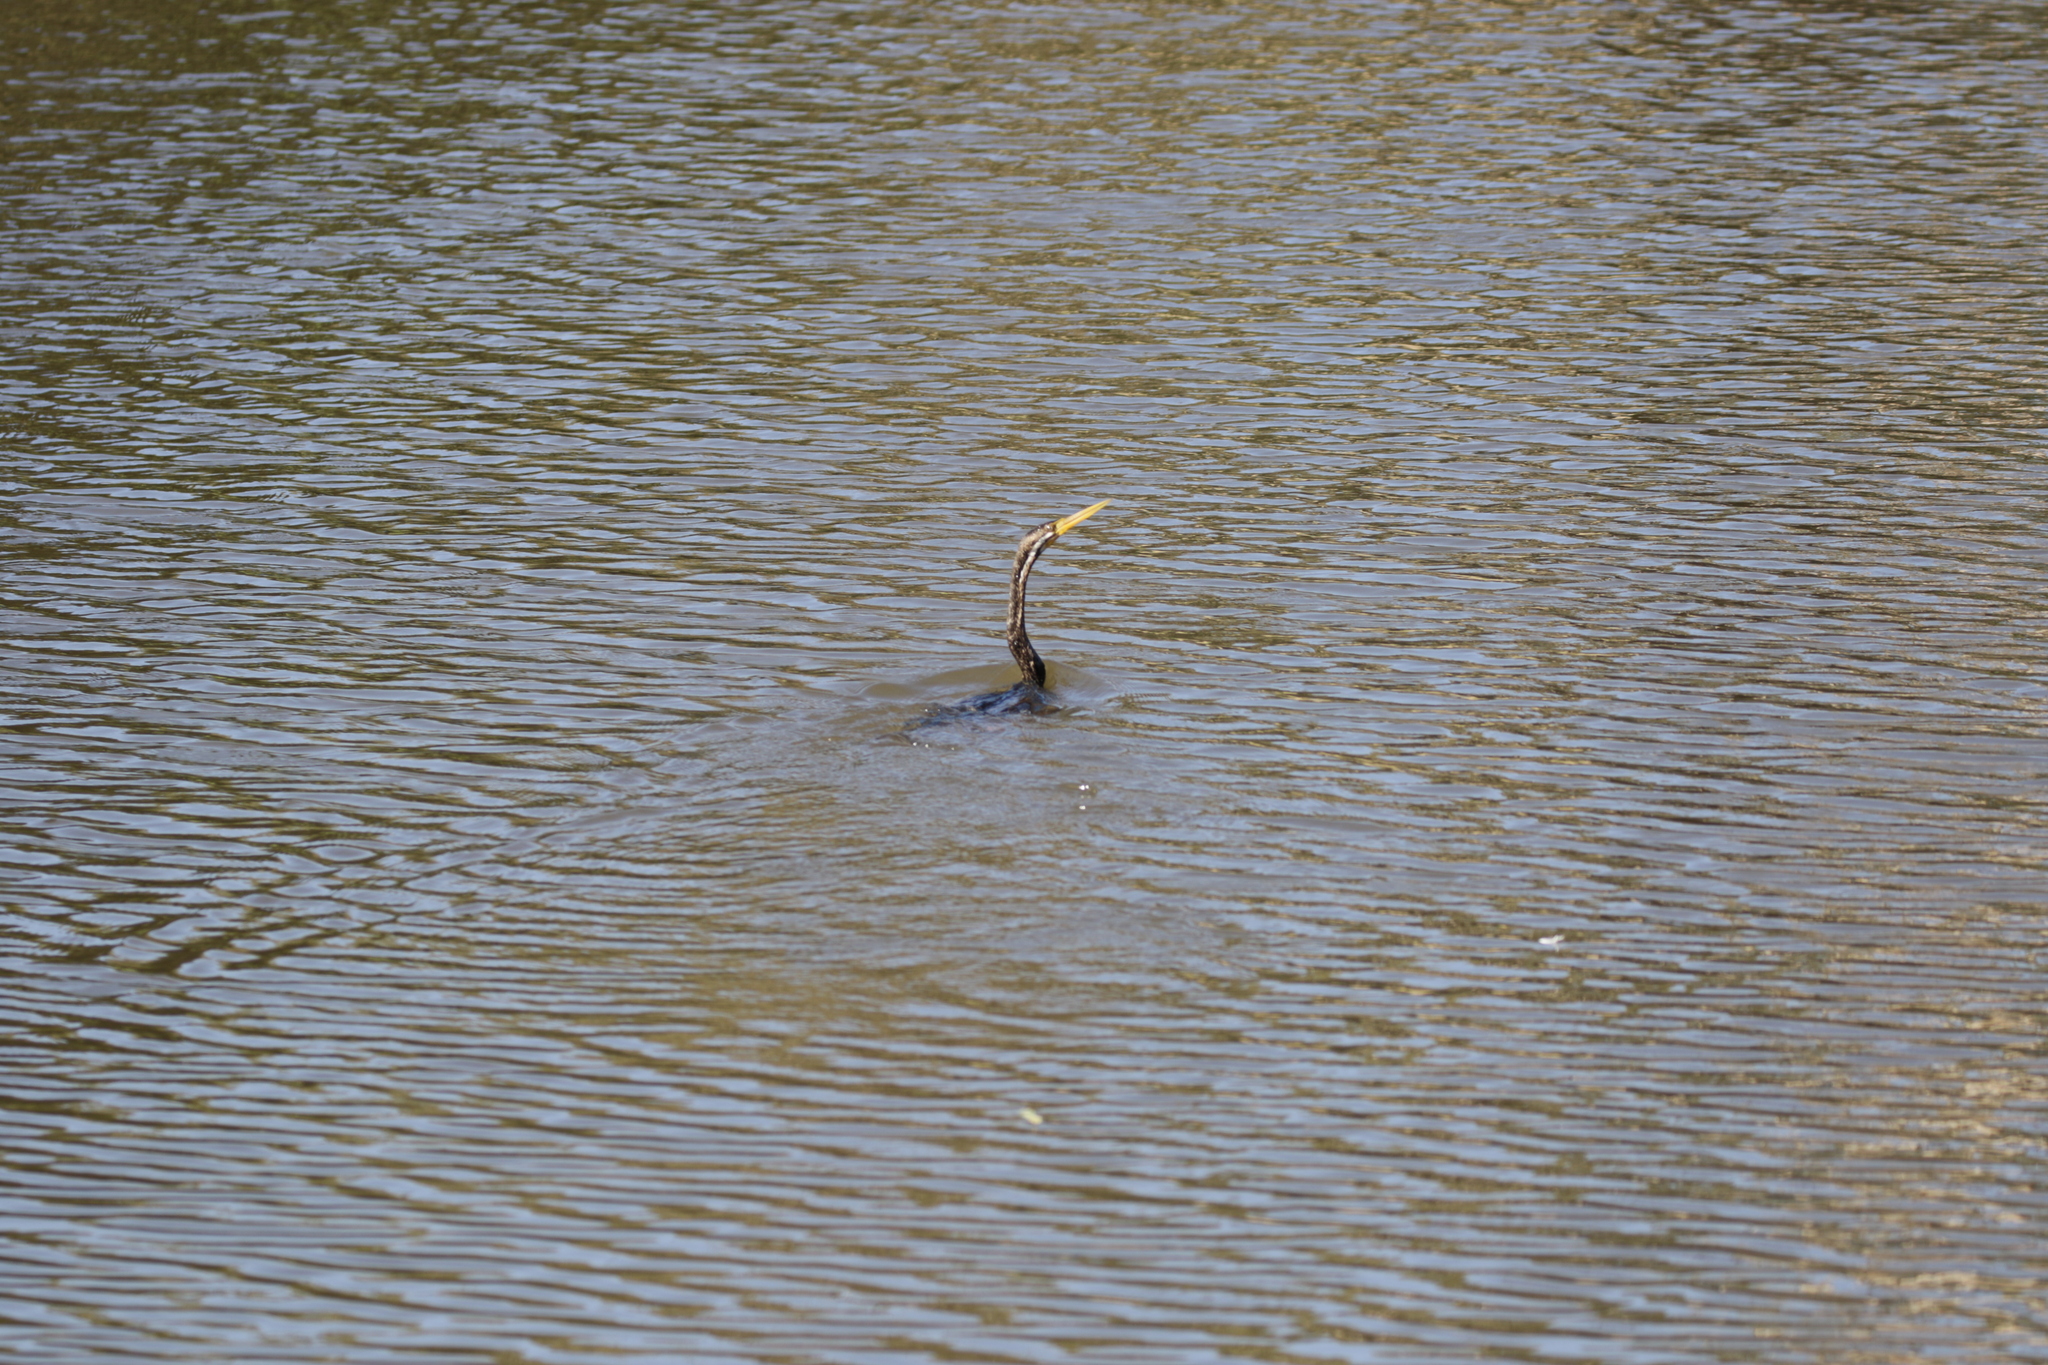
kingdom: Animalia
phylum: Chordata
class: Aves
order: Suliformes
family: Anhingidae
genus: Anhinga
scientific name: Anhinga novaehollandiae
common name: Australasian darter
